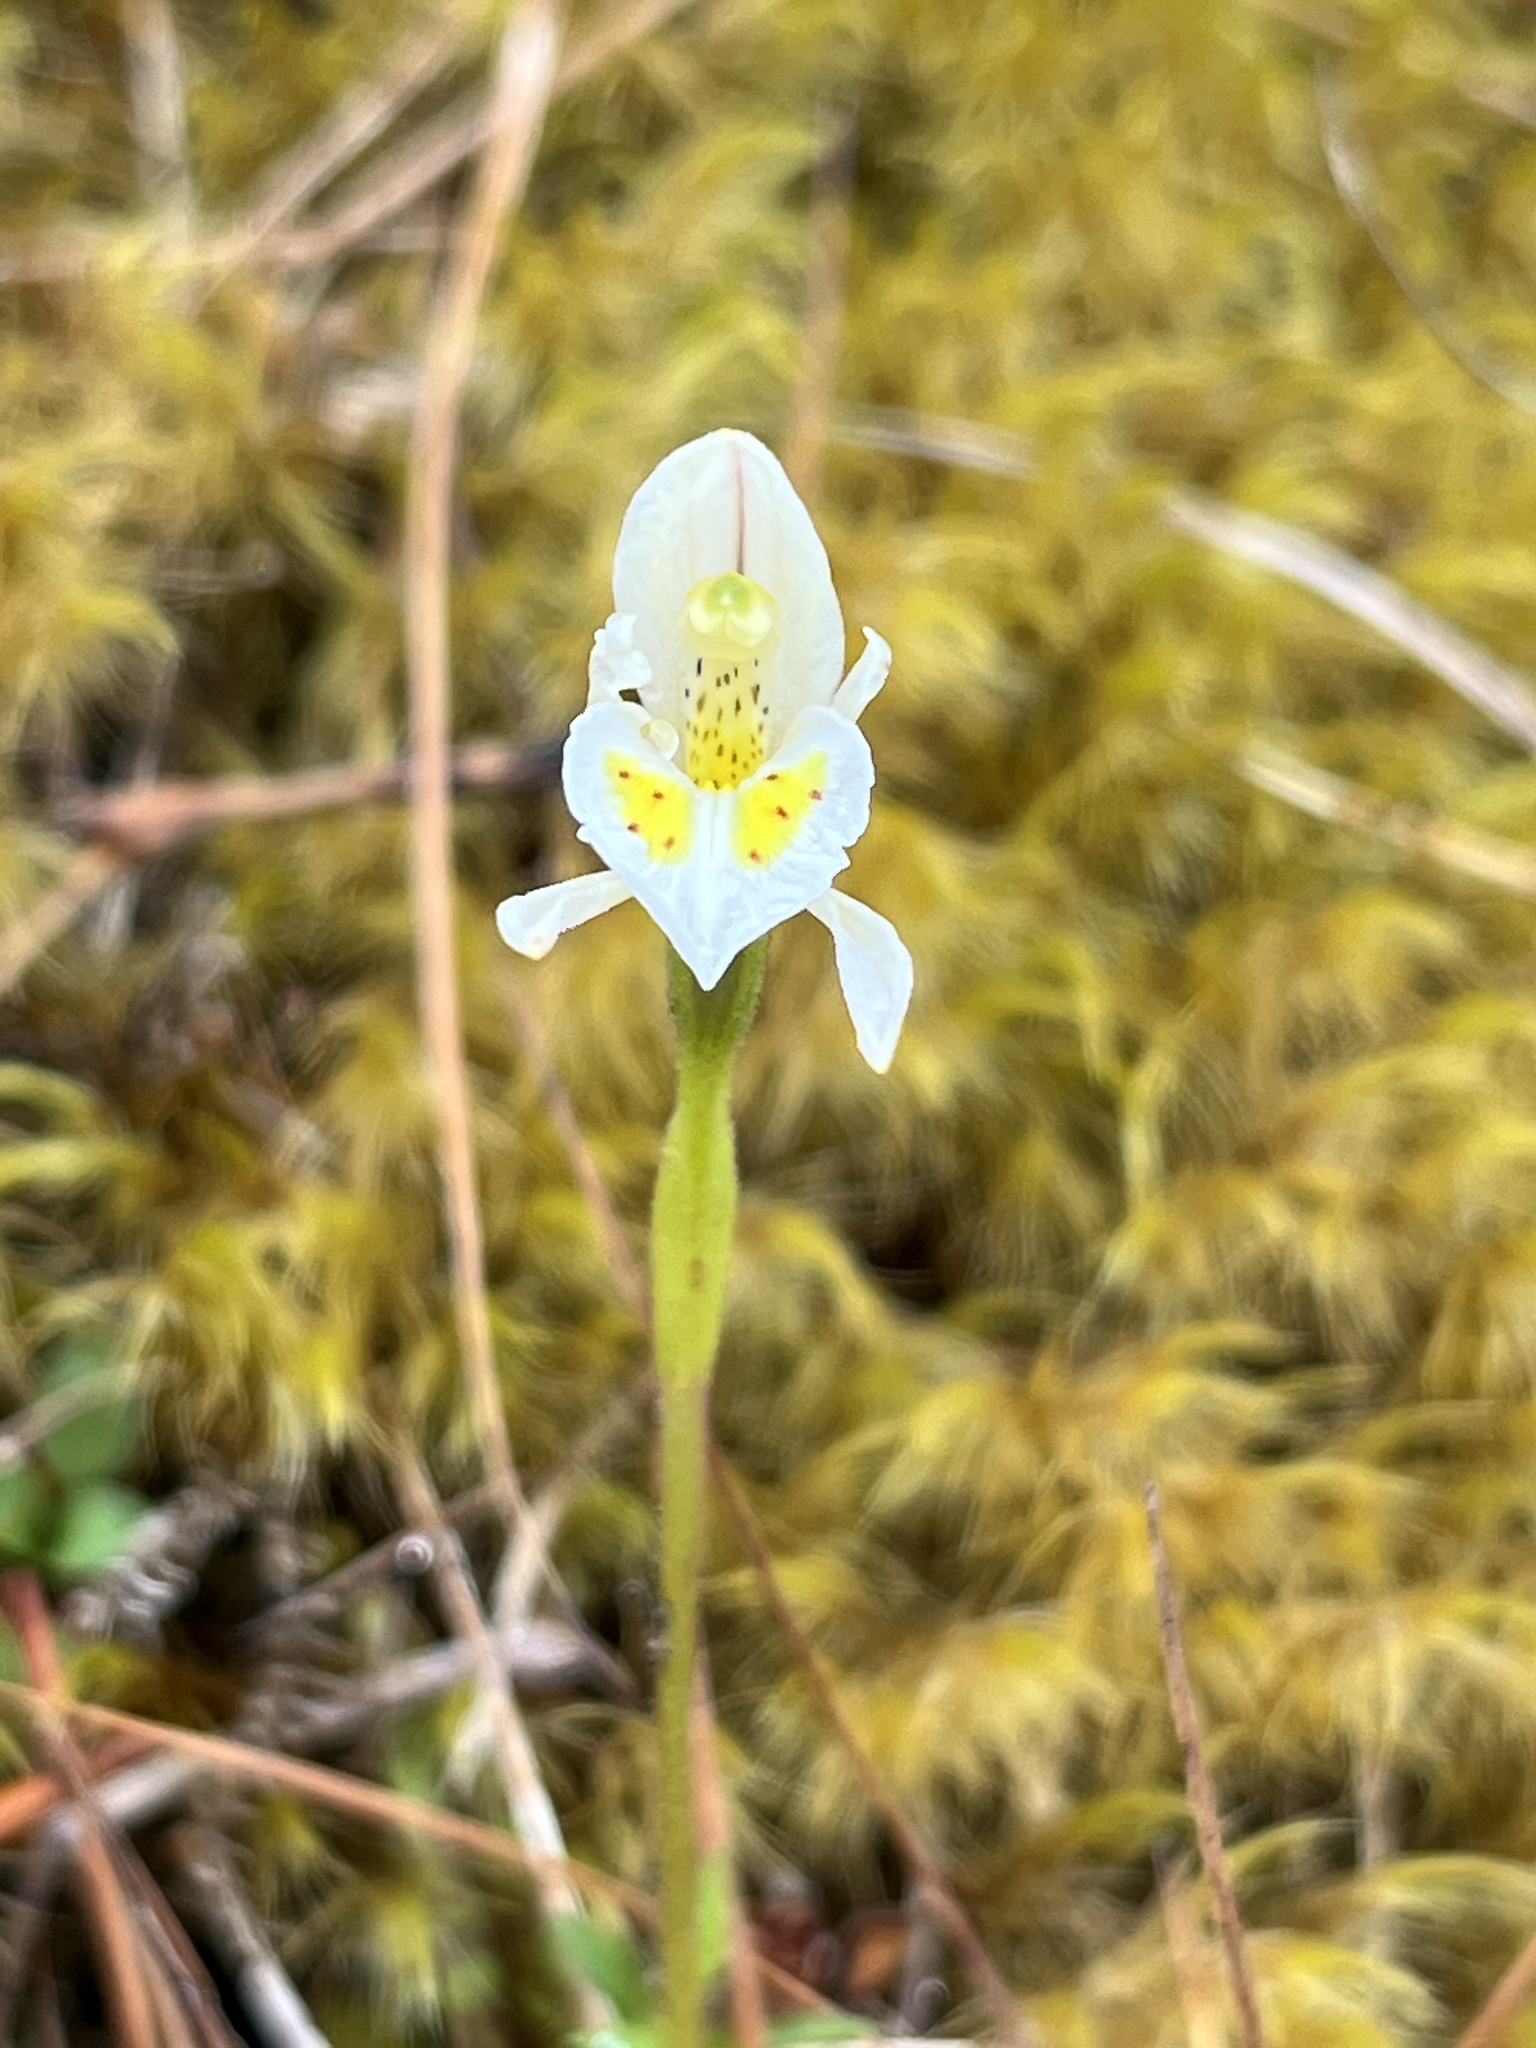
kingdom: Plantae
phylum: Tracheophyta
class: Liliopsida
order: Asparagales
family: Orchidaceae
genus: Aporostylis
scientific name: Aporostylis bifolia
